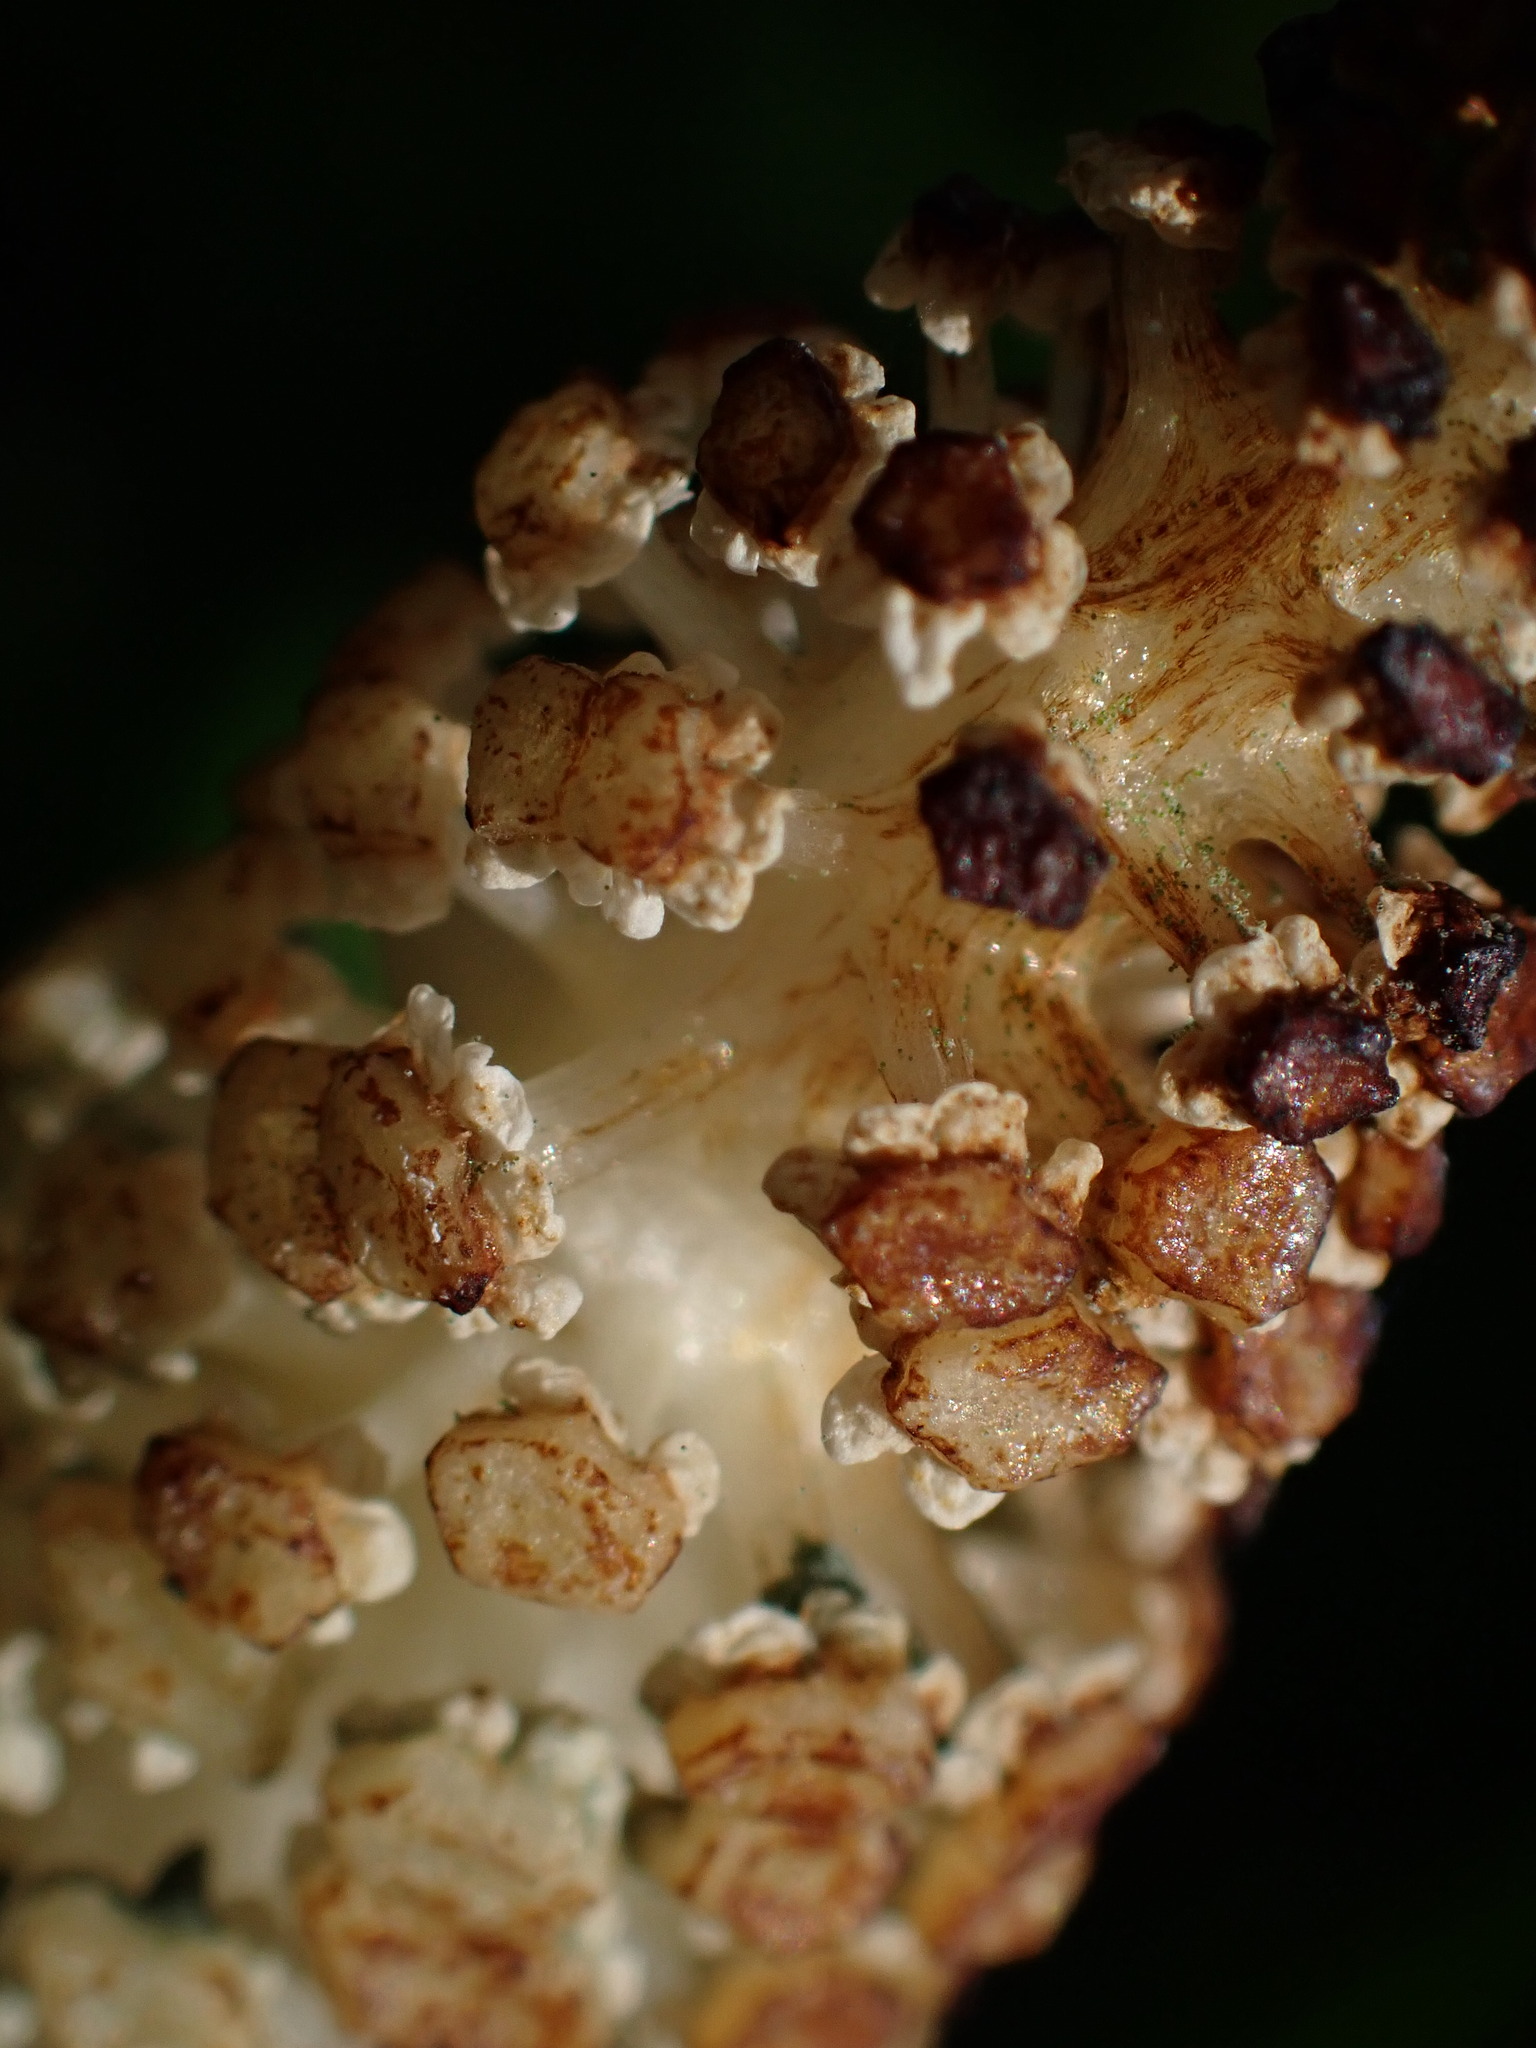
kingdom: Plantae
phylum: Tracheophyta
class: Polypodiopsida
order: Equisetales
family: Equisetaceae
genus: Equisetum
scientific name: Equisetum braunii
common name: Braun's horsetail
